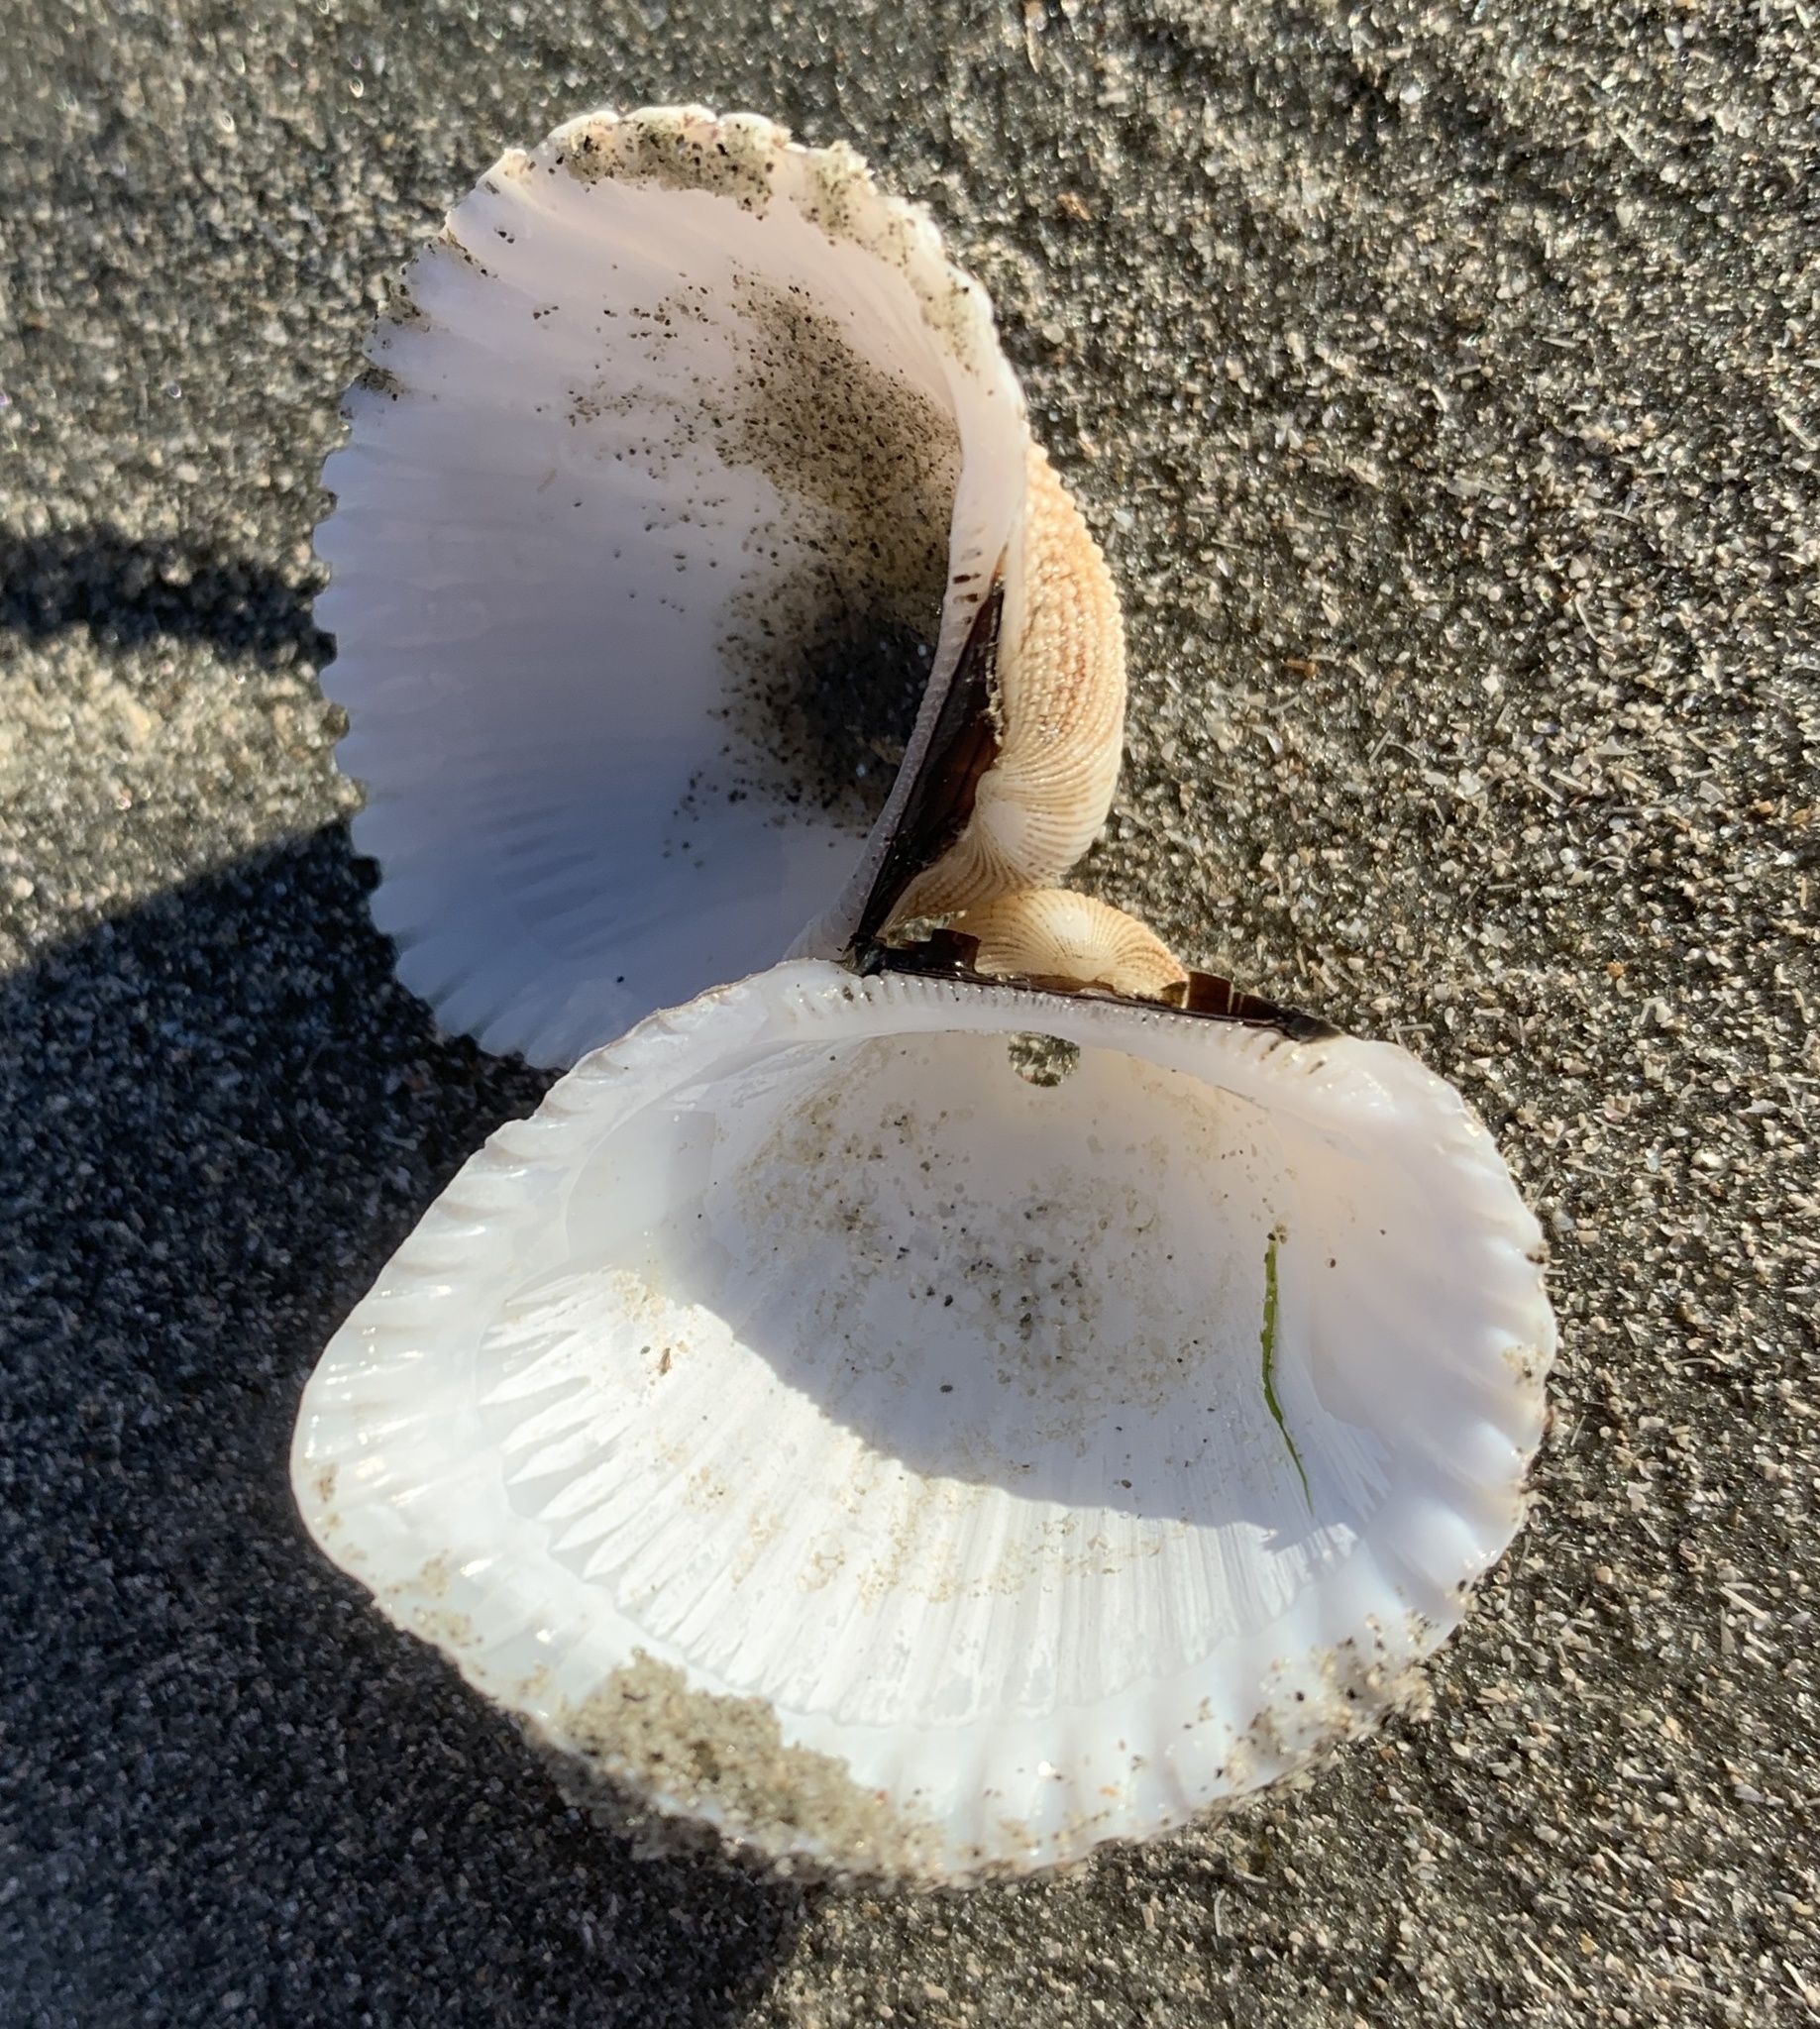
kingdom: Animalia
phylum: Mollusca
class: Bivalvia
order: Arcida
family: Arcidae
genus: Anadara
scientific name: Anadara brasiliana
